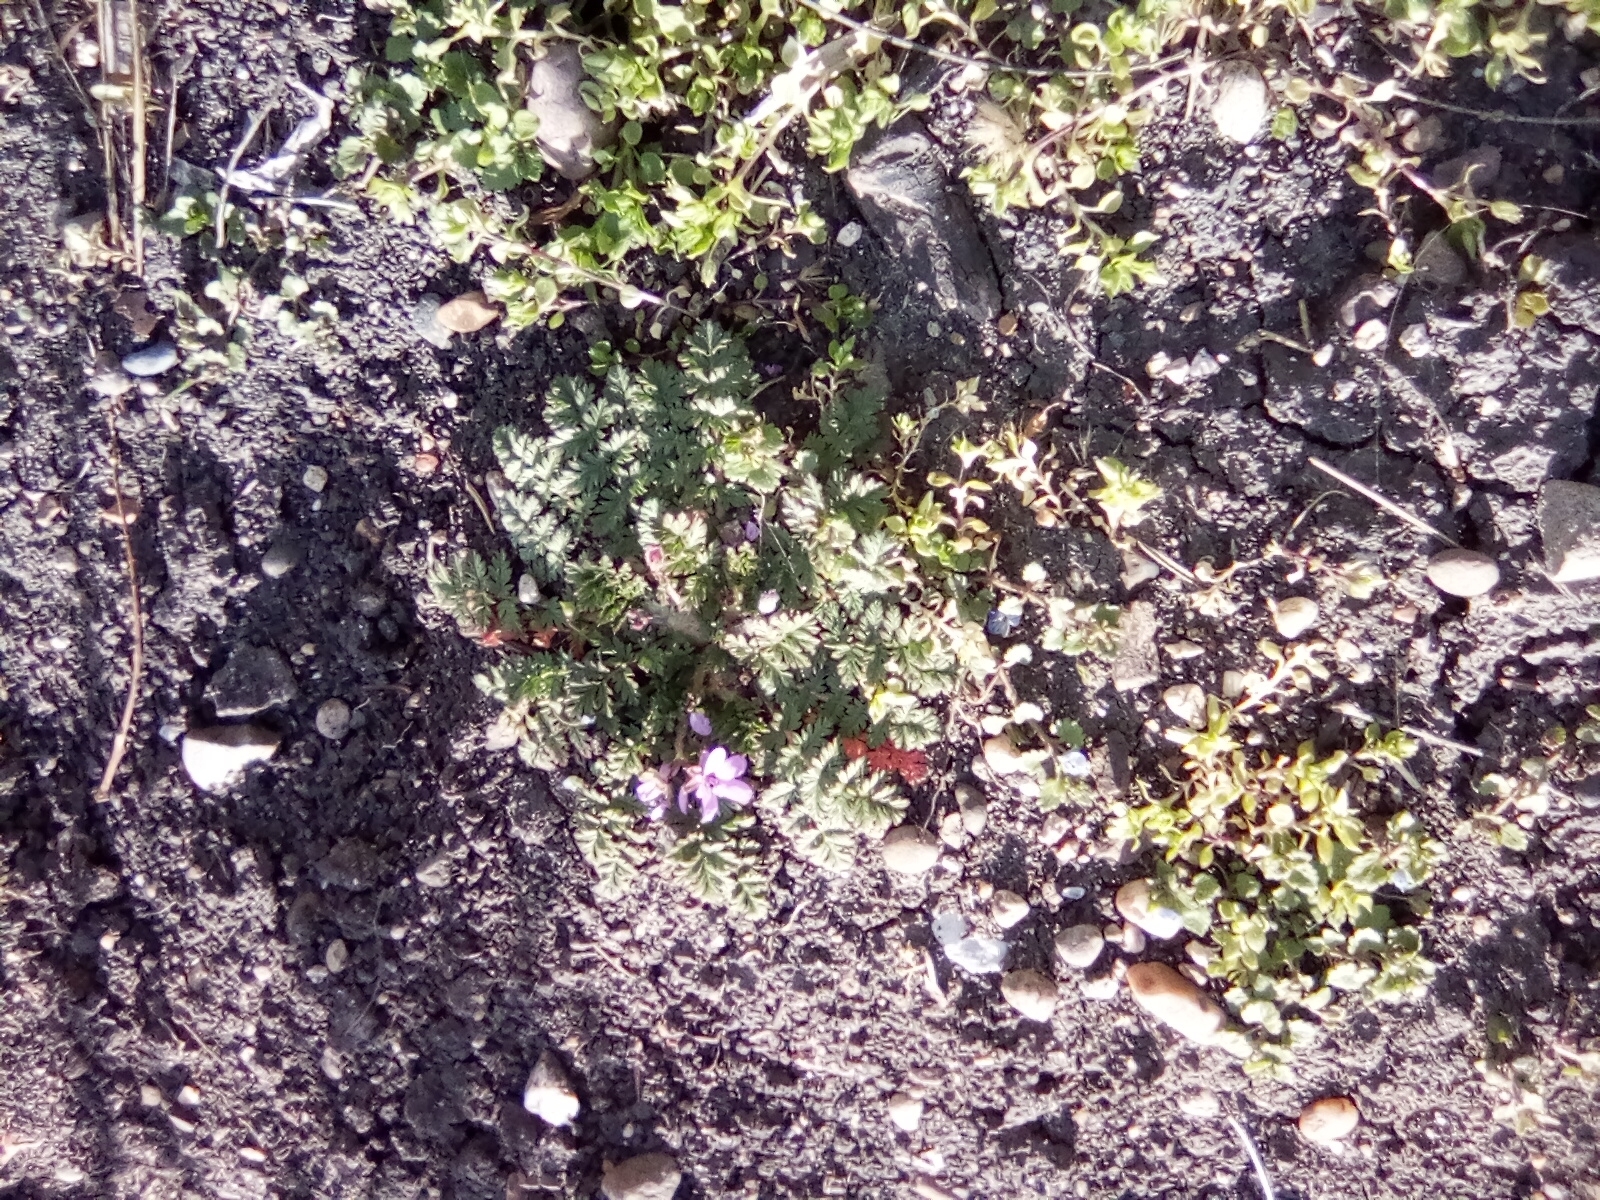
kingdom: Plantae
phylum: Tracheophyta
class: Magnoliopsida
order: Geraniales
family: Geraniaceae
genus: Erodium
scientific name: Erodium cicutarium
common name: Common stork's-bill
